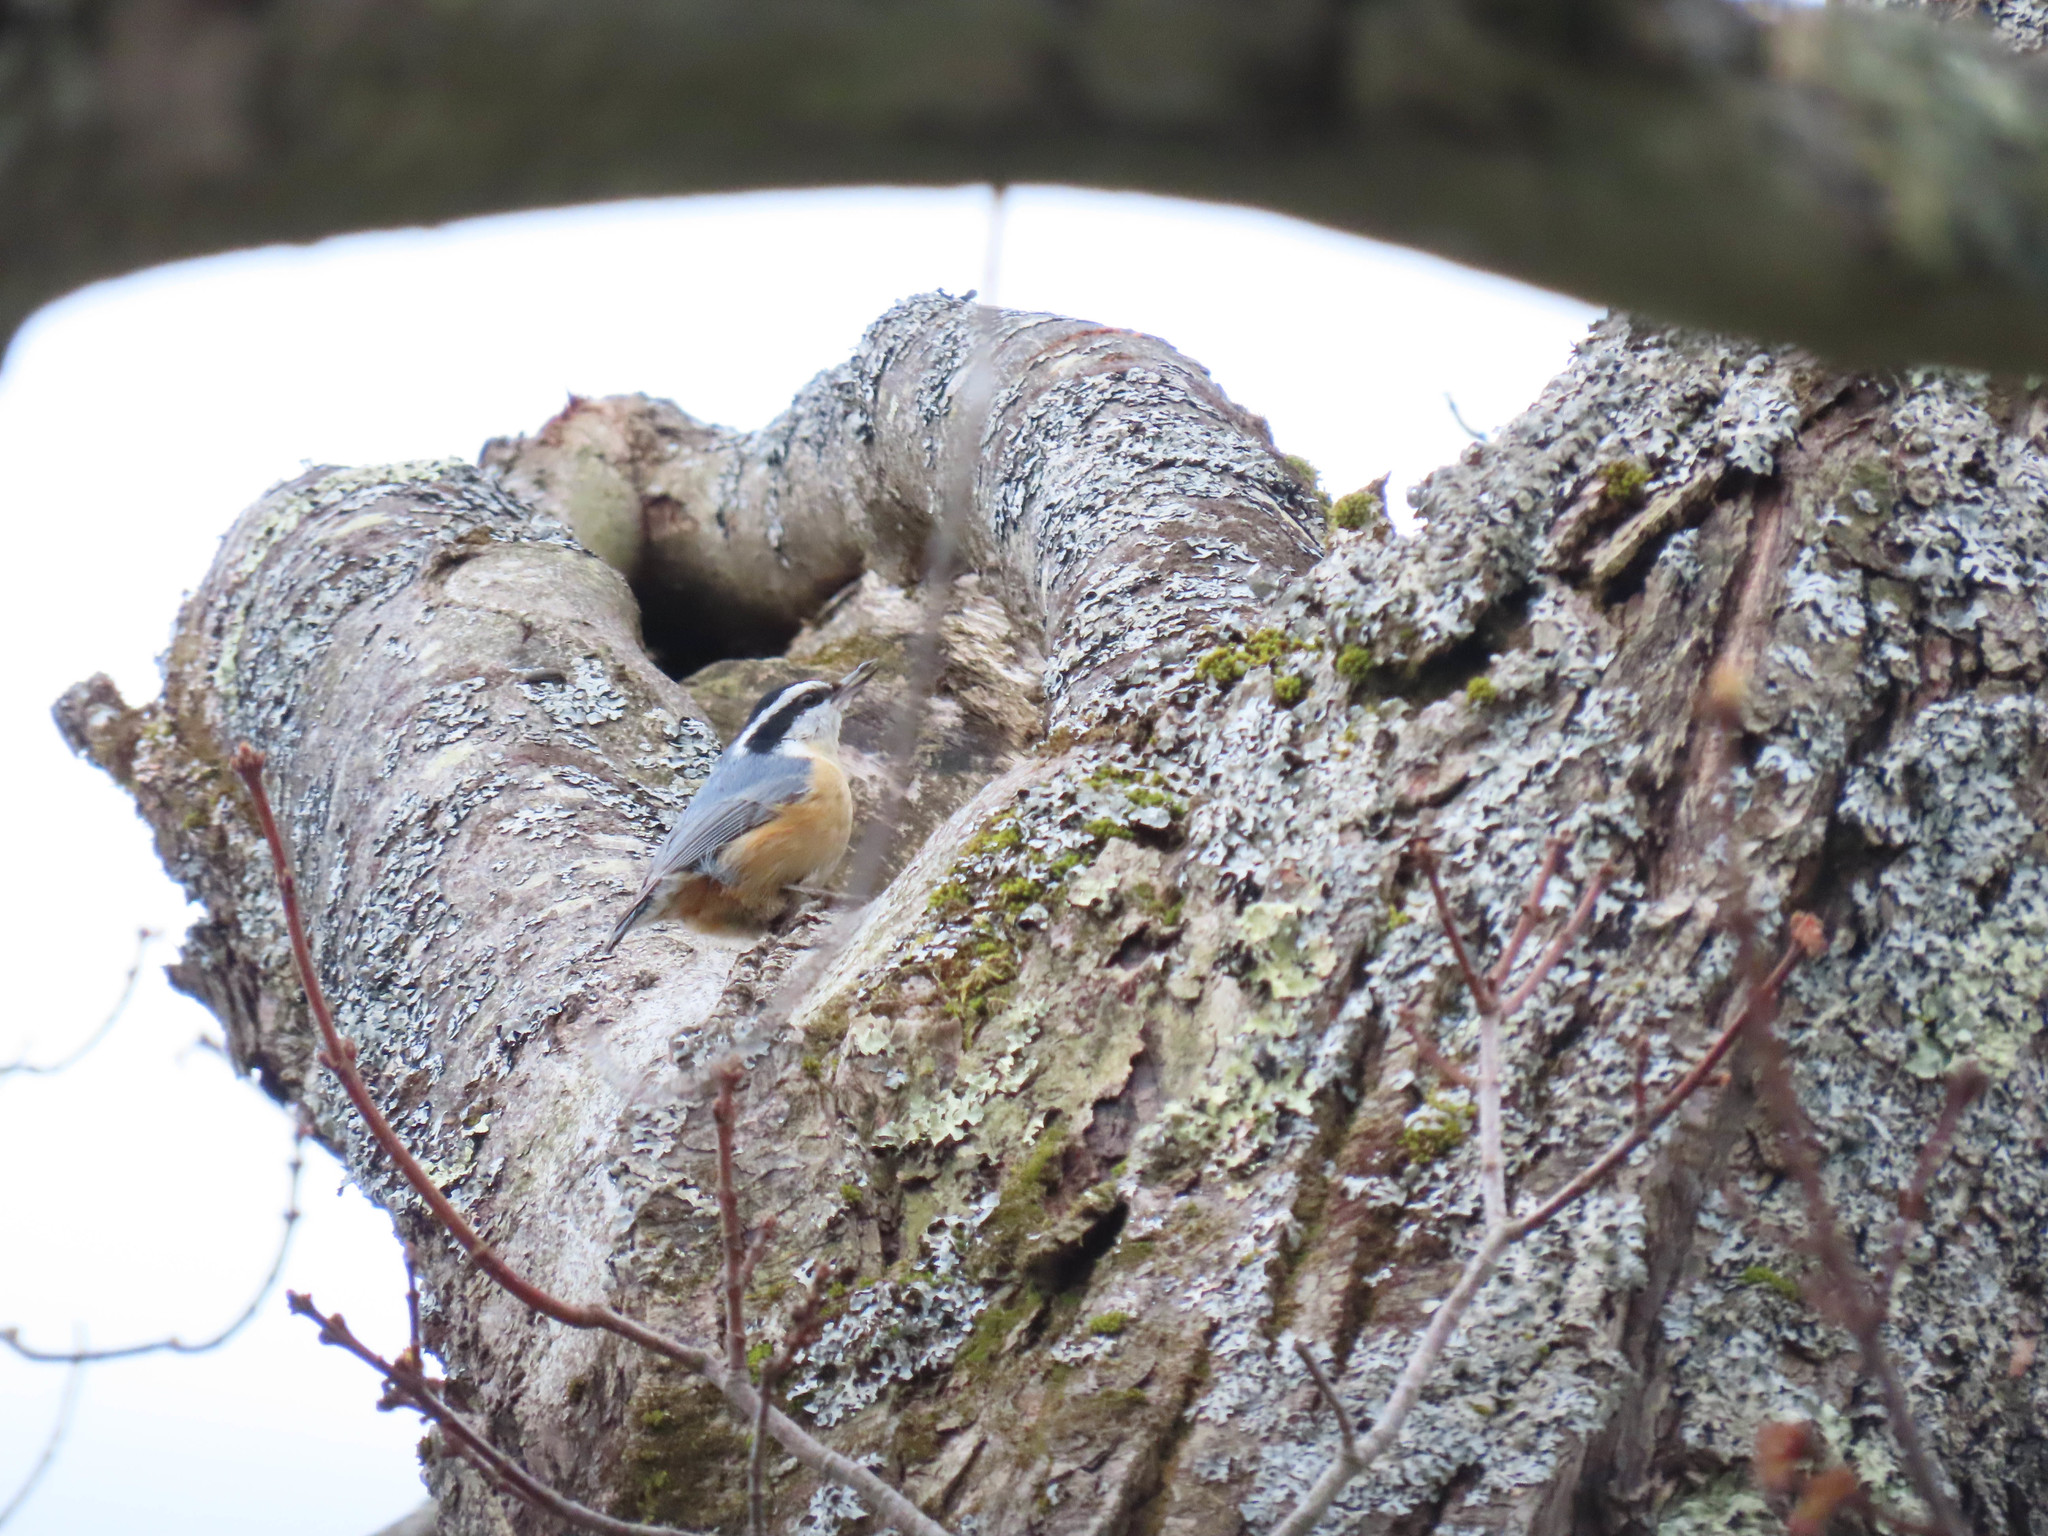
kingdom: Animalia
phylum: Chordata
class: Aves
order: Passeriformes
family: Sittidae
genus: Sitta
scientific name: Sitta canadensis
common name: Red-breasted nuthatch
